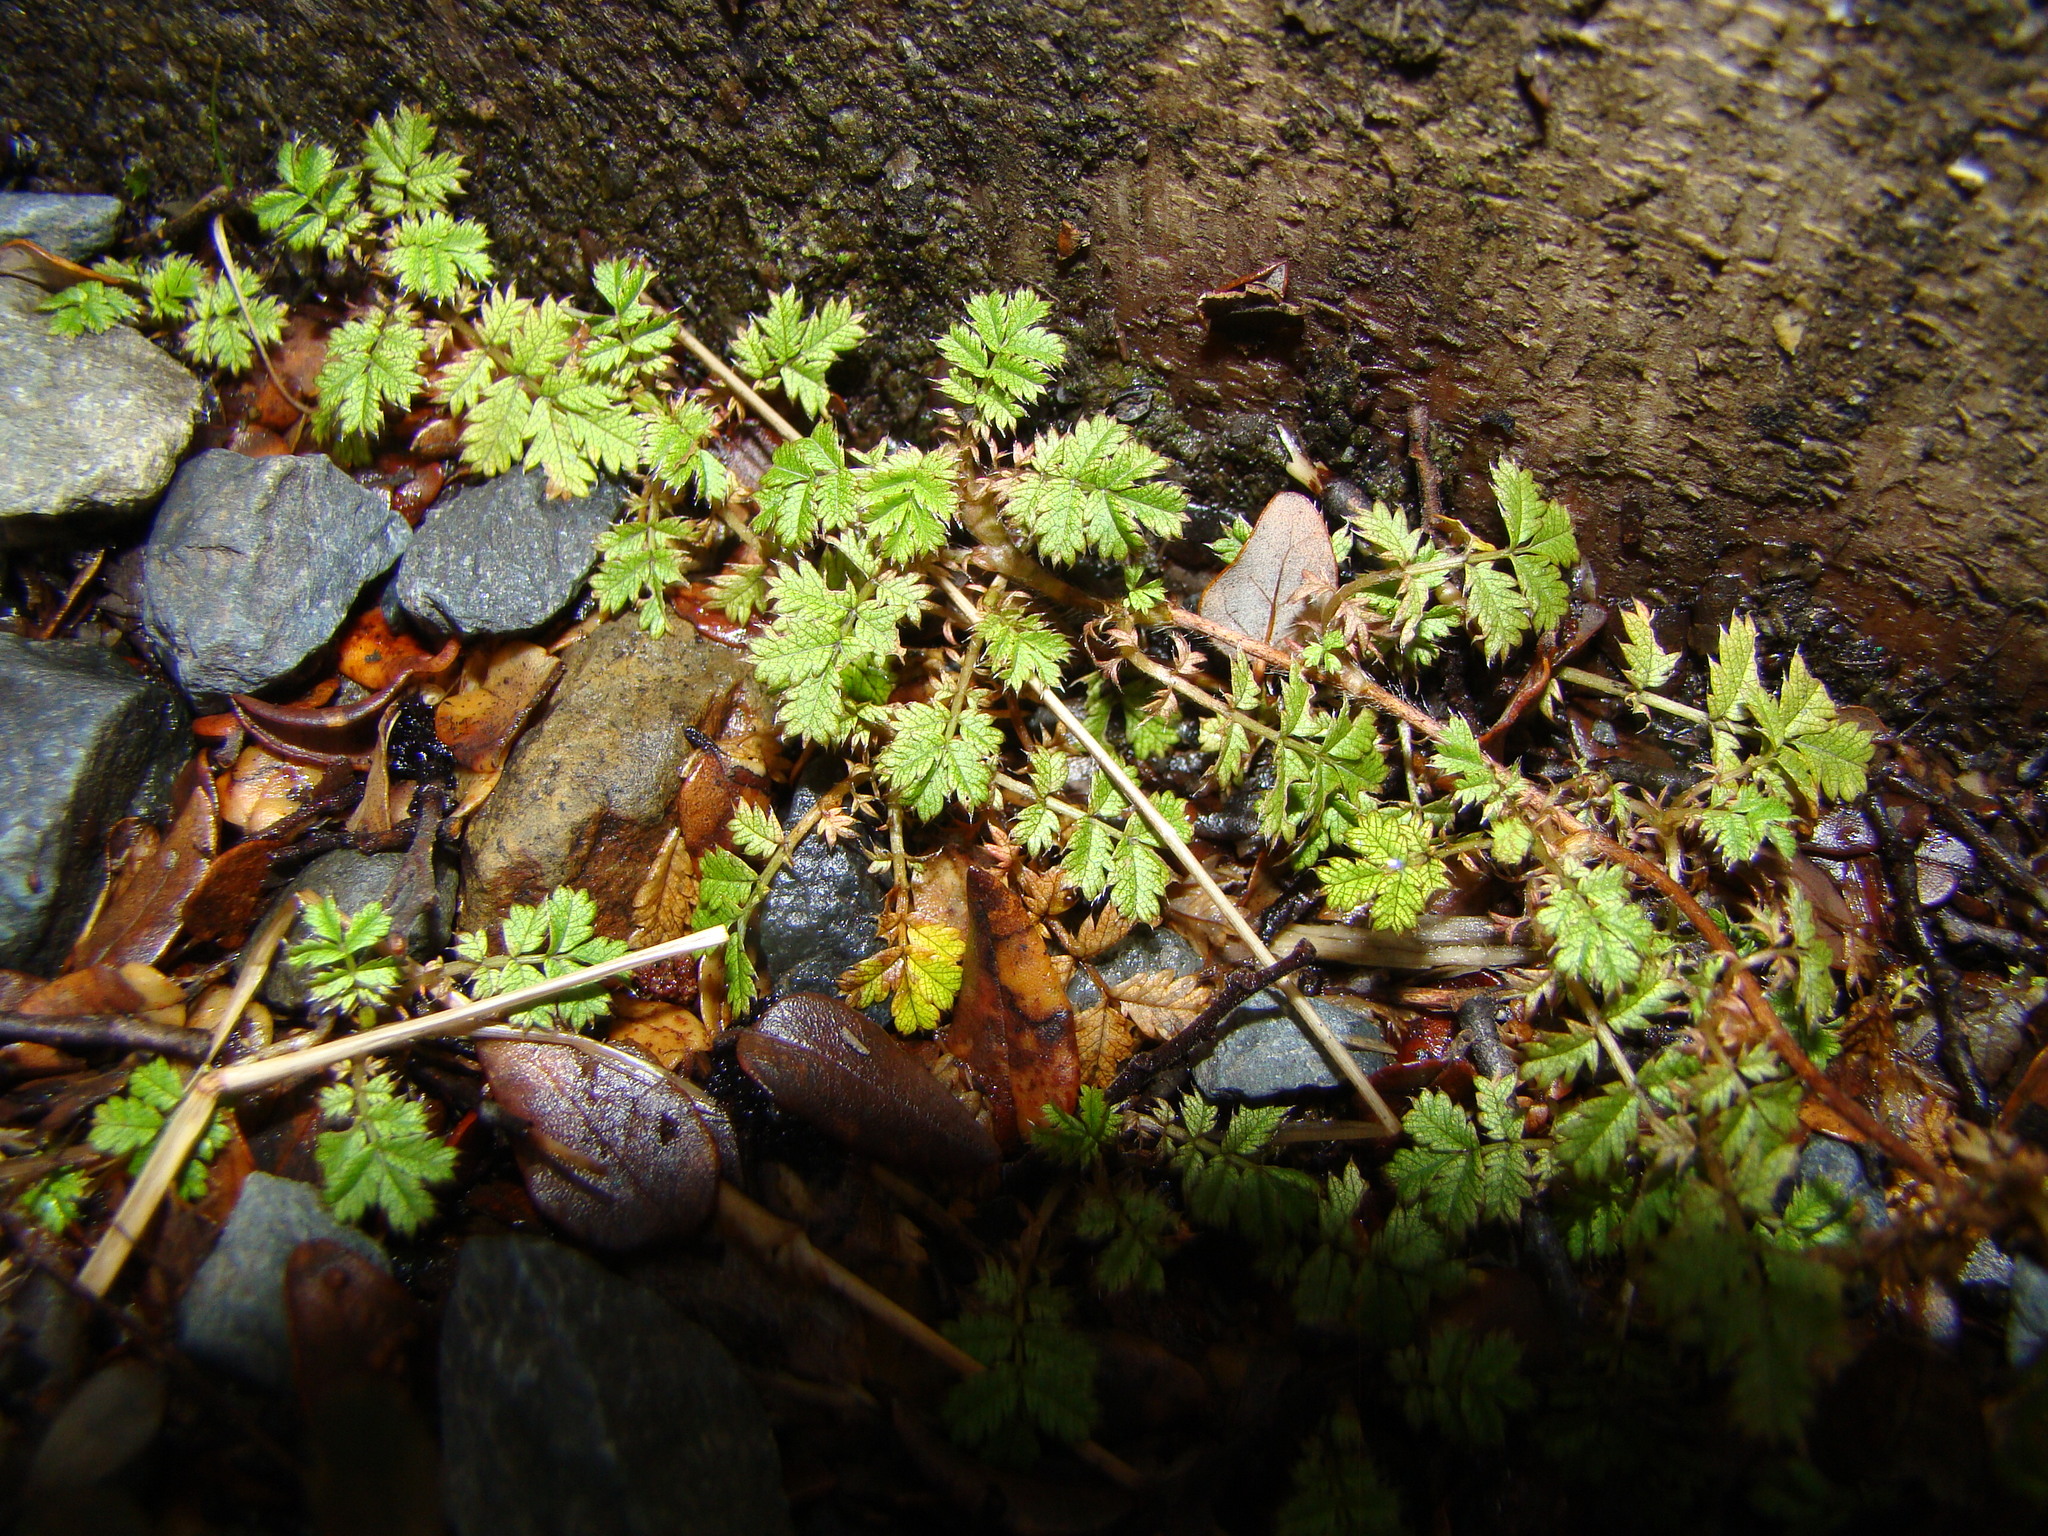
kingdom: Plantae
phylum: Tracheophyta
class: Magnoliopsida
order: Rosales
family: Rosaceae
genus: Acaena
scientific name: Acaena anserinifolia
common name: Bronze pirri-pirri-bur
